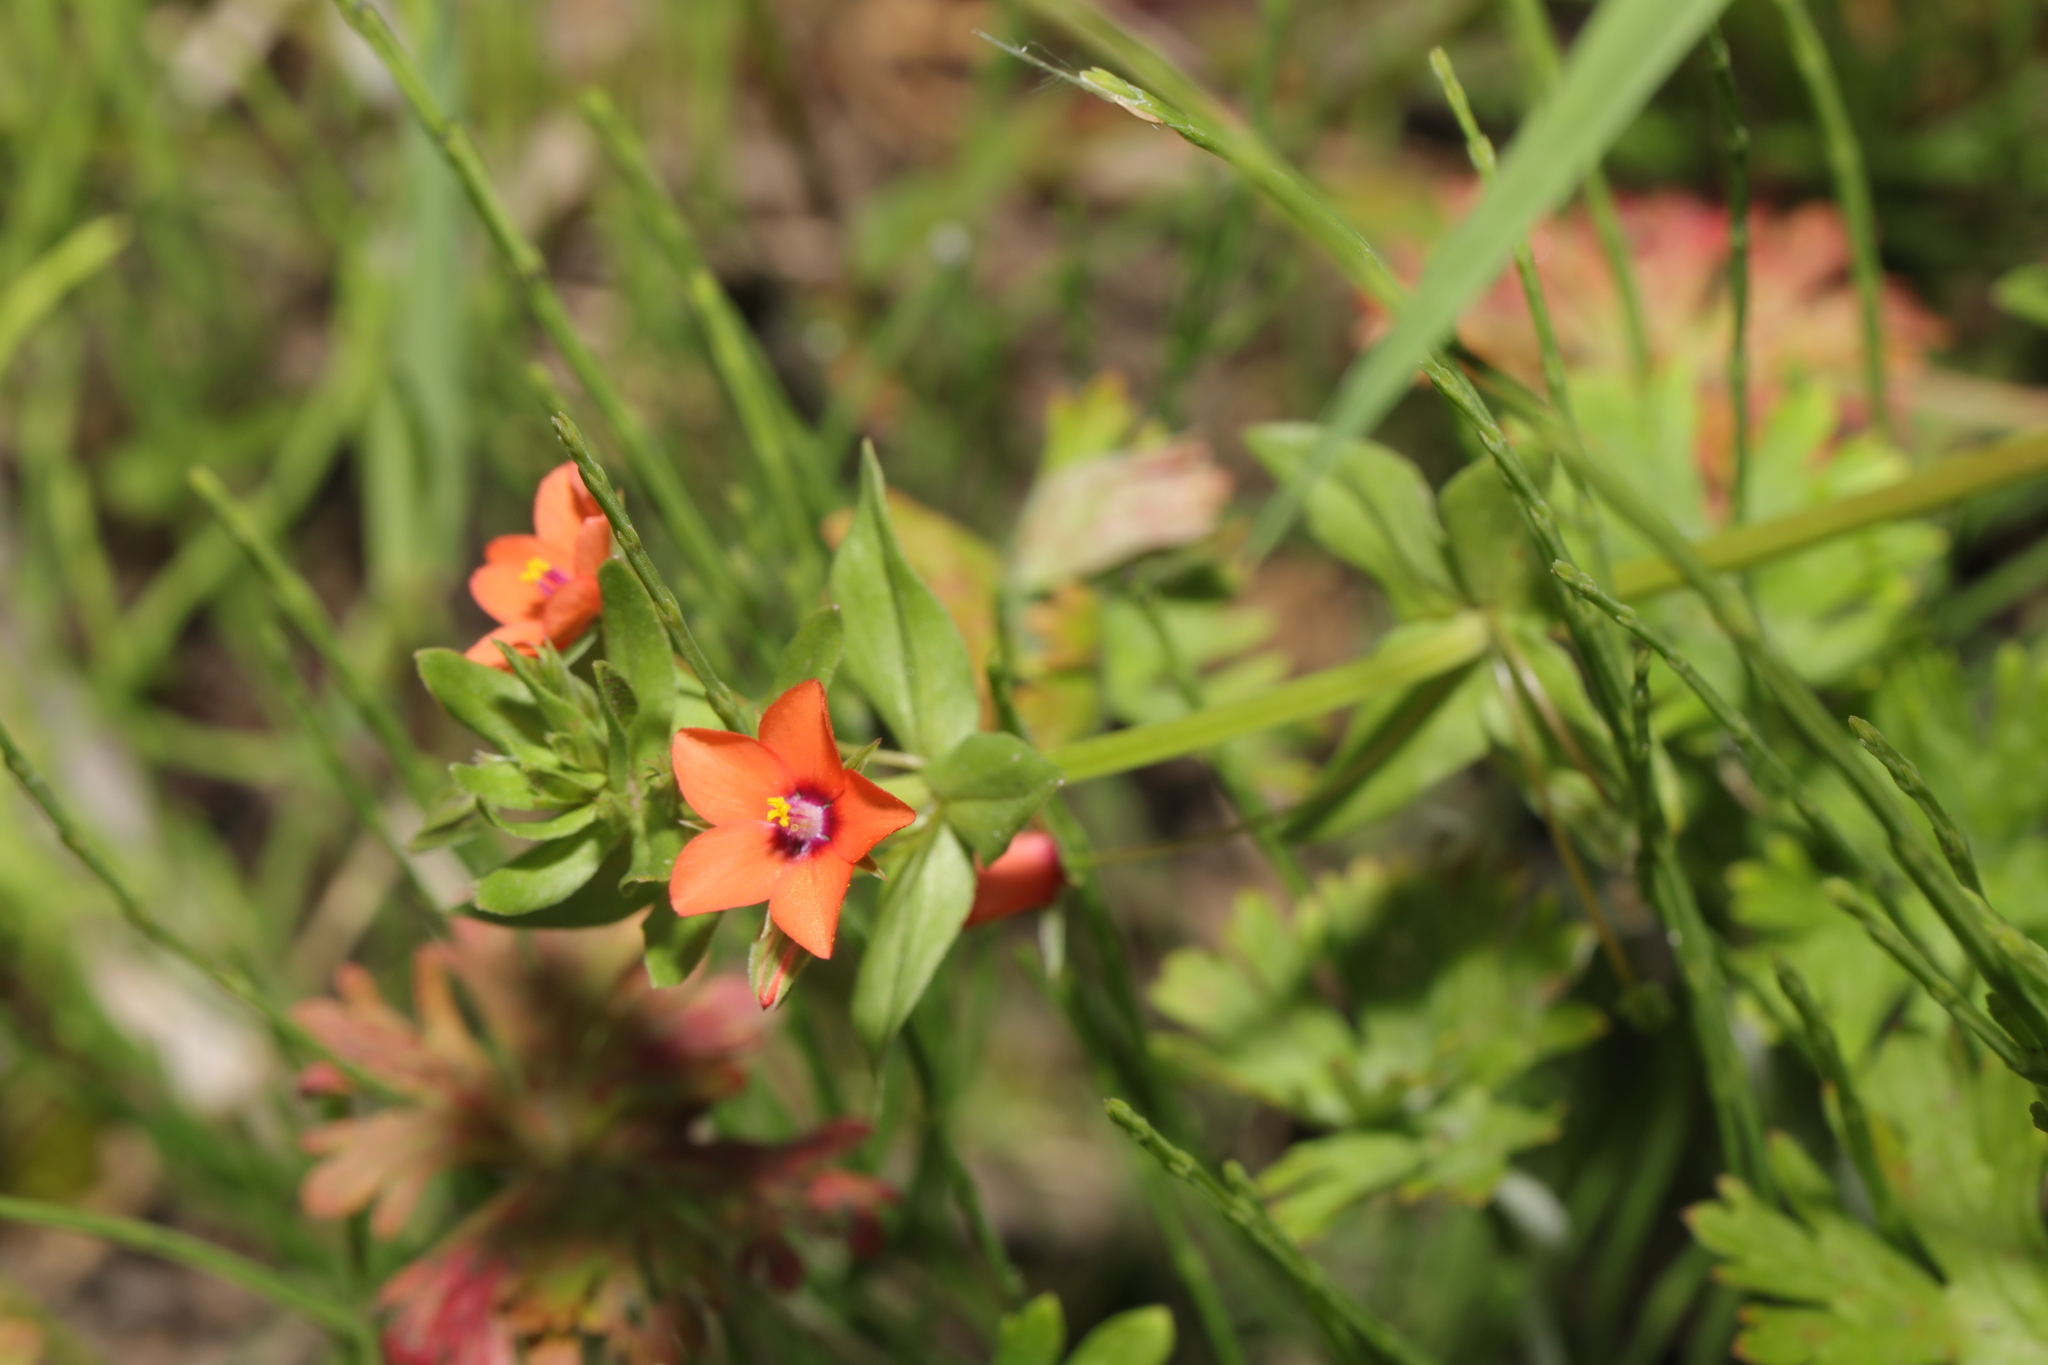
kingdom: Plantae
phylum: Tracheophyta
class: Magnoliopsida
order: Ericales
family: Primulaceae
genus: Lysimachia
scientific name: Lysimachia arvensis
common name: Scarlet pimpernel
